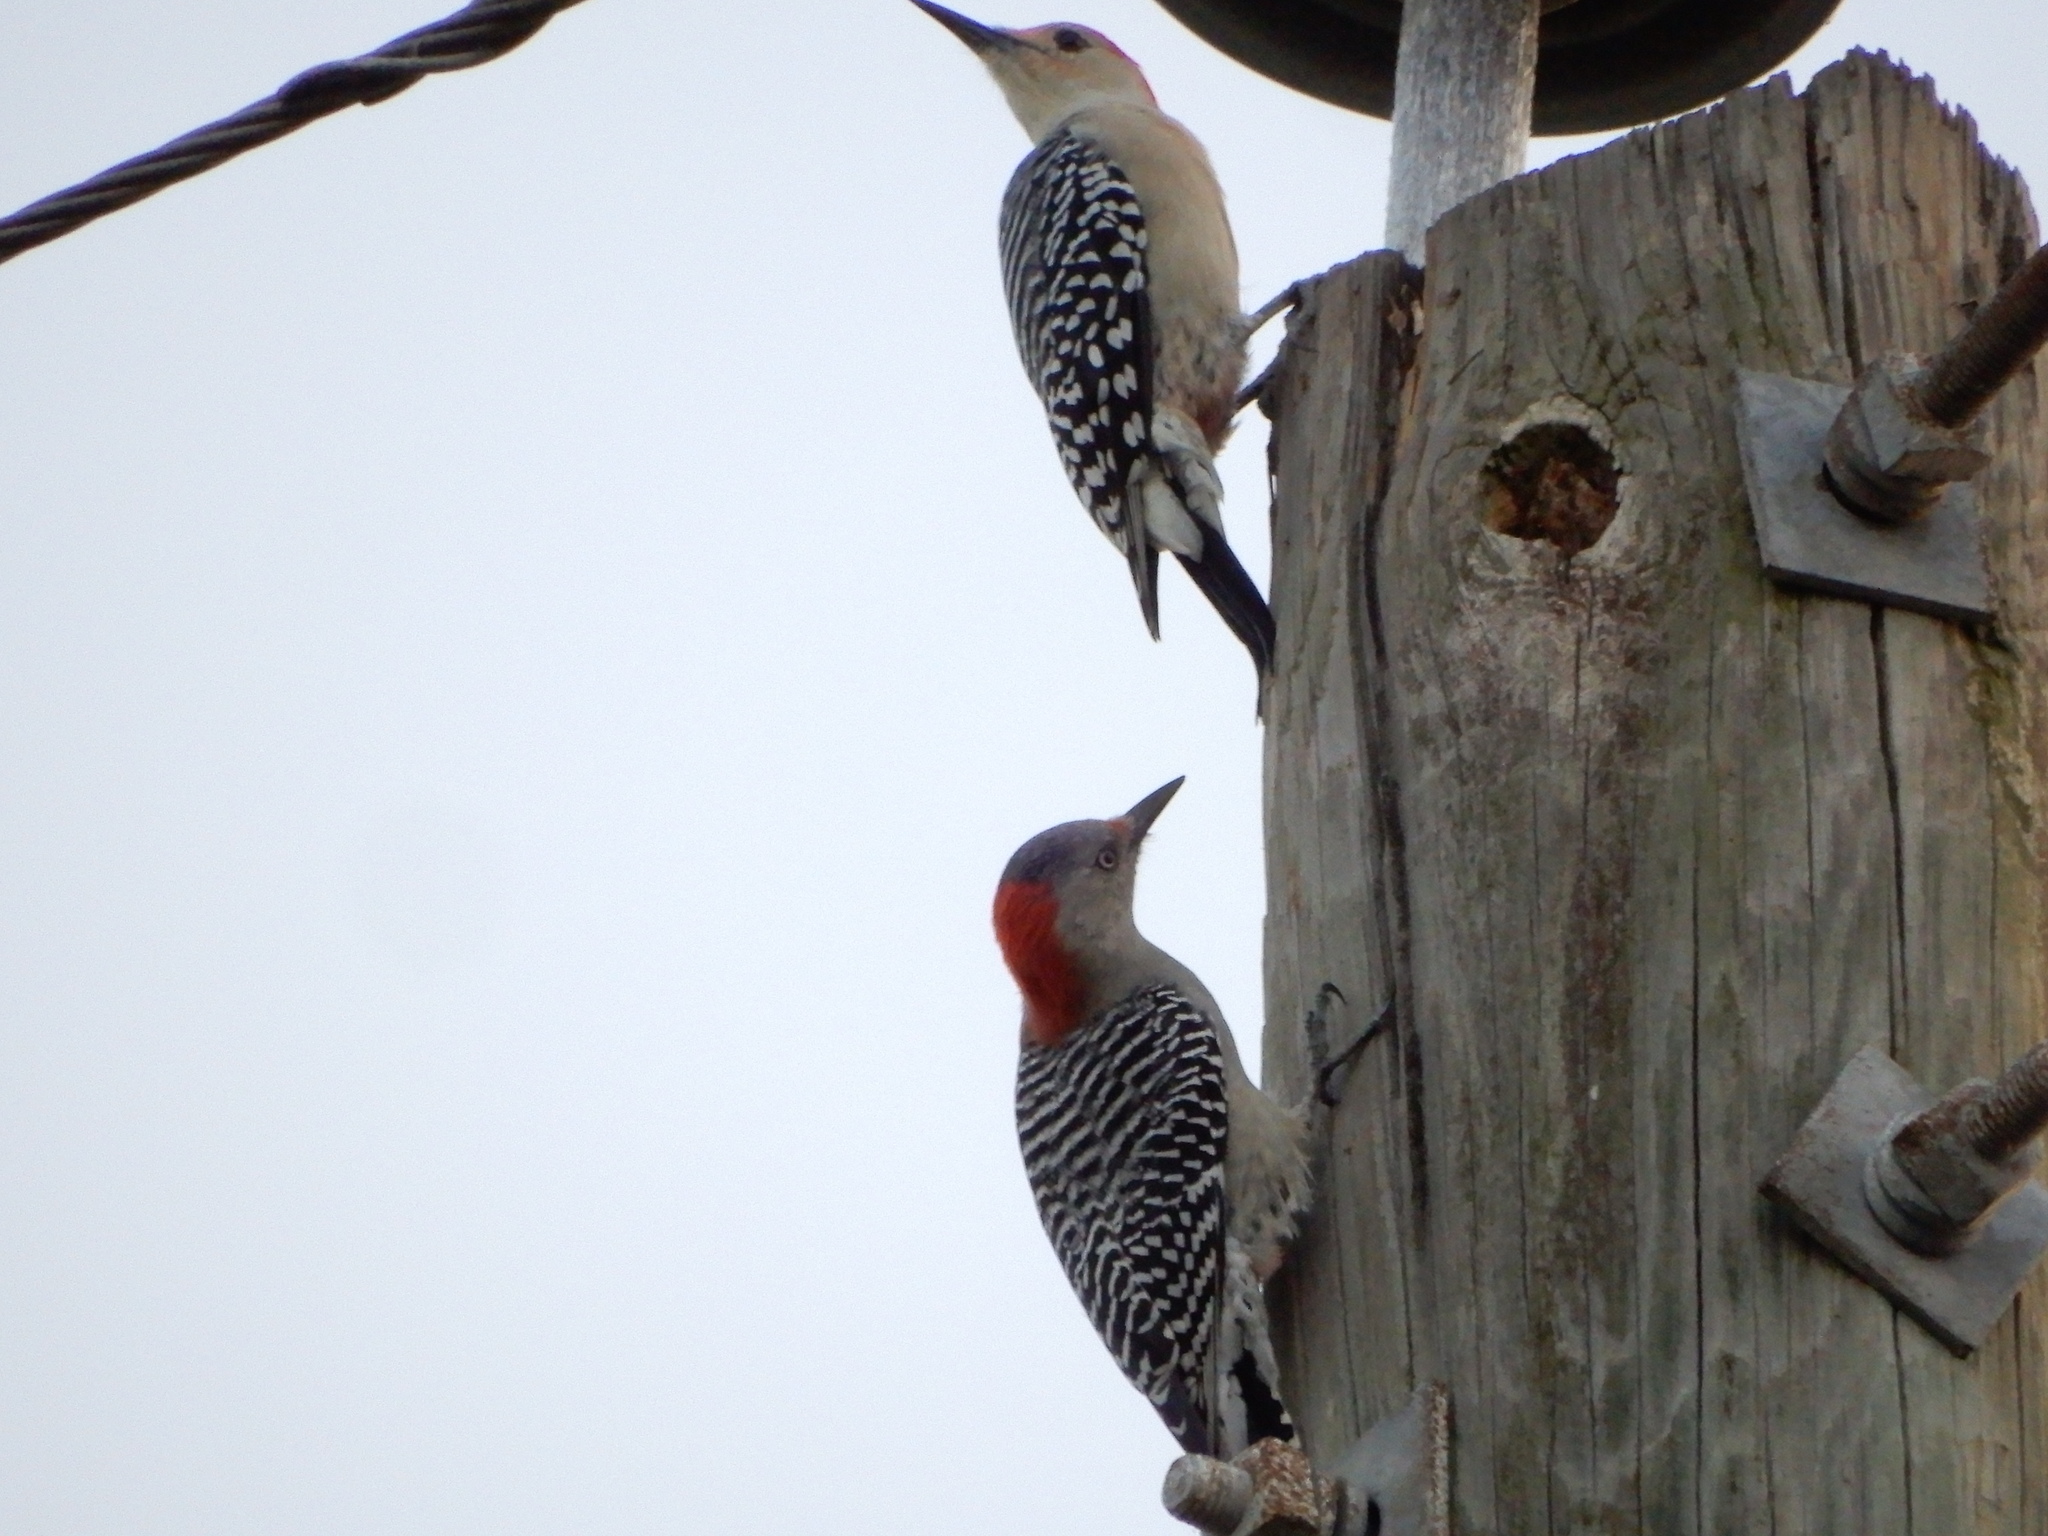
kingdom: Animalia
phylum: Chordata
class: Aves
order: Piciformes
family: Picidae
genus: Melanerpes
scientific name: Melanerpes carolinus
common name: Red-bellied woodpecker
